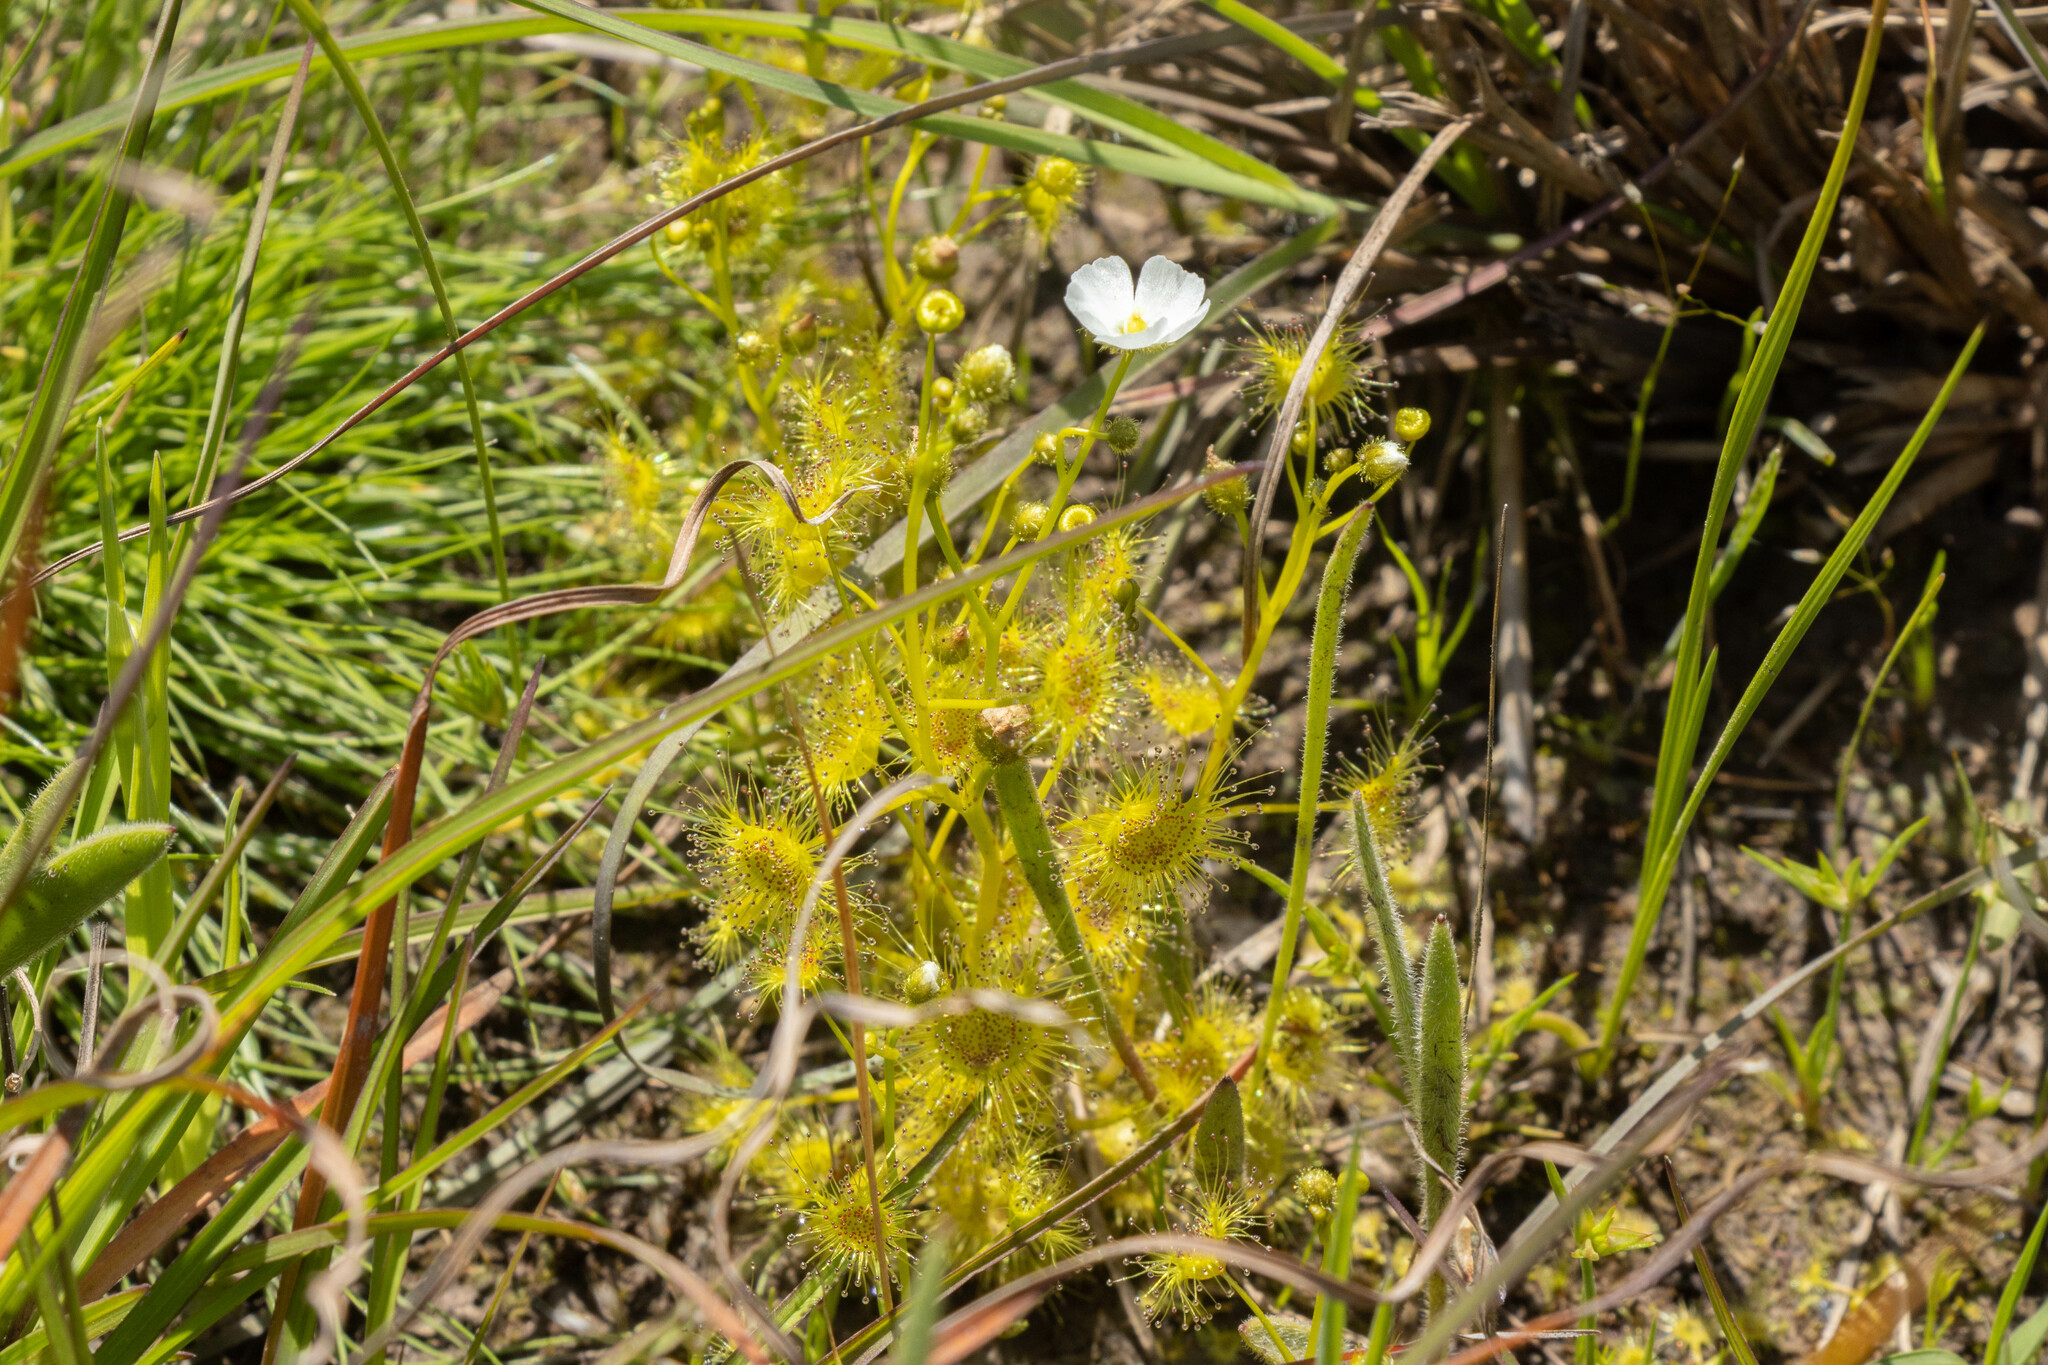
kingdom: Plantae
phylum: Tracheophyta
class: Magnoliopsida
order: Caryophyllales
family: Droseraceae
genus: Drosera
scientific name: Drosera hookeri
